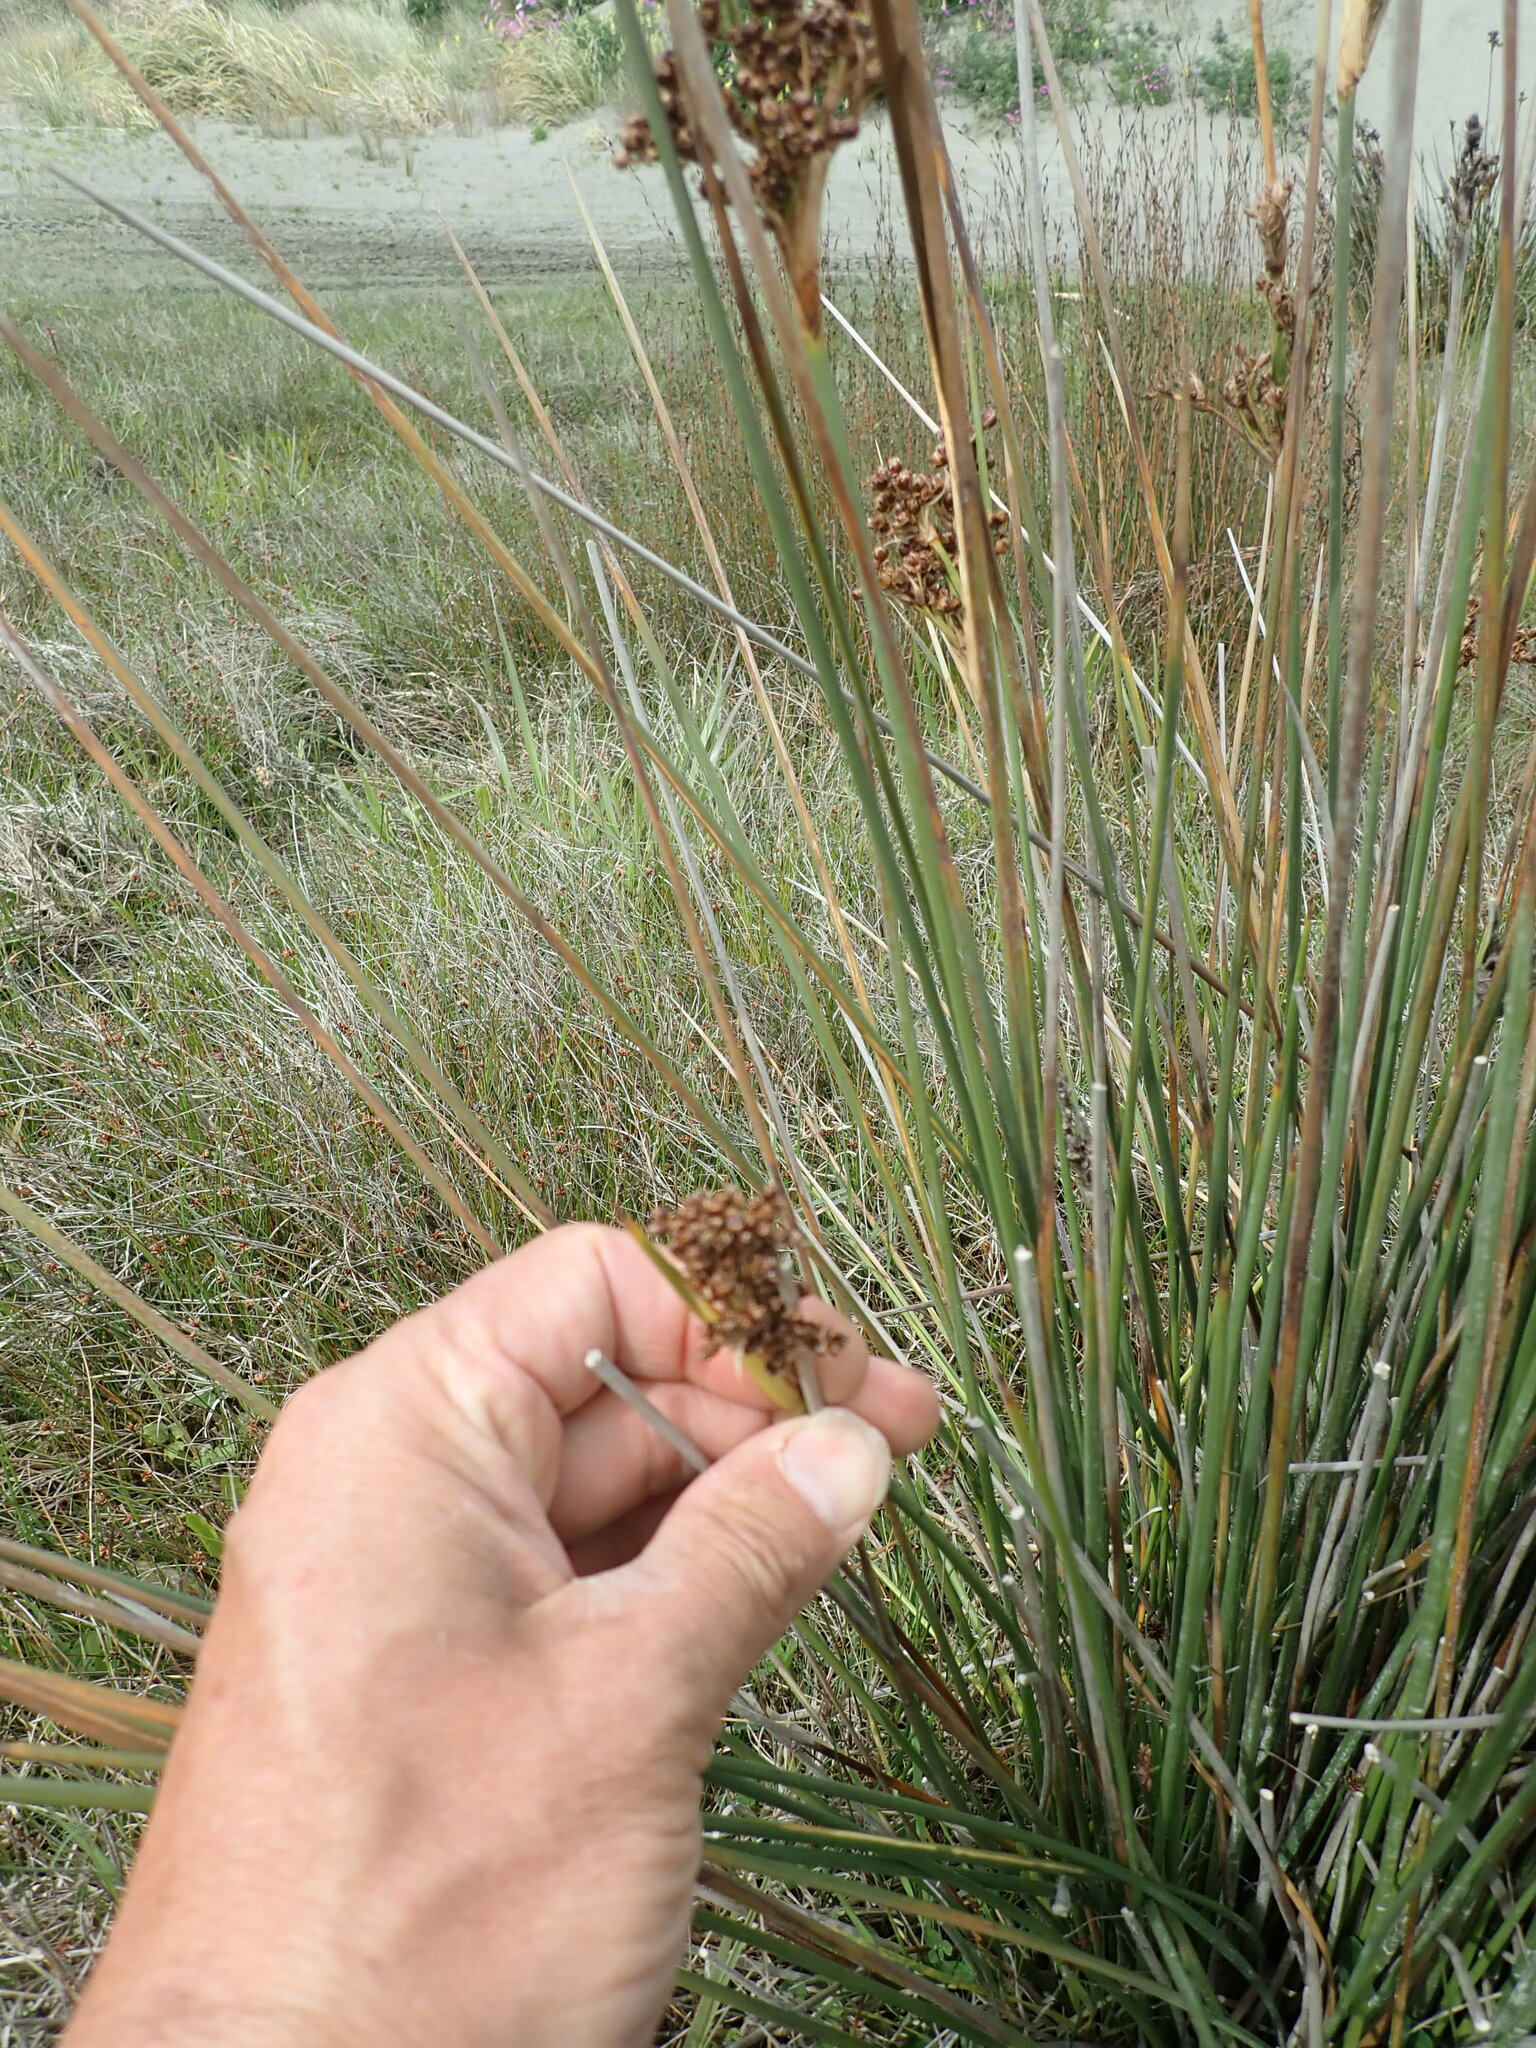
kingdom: Plantae
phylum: Tracheophyta
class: Liliopsida
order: Poales
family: Juncaceae
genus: Juncus
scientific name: Juncus acutus
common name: Sharp rush
